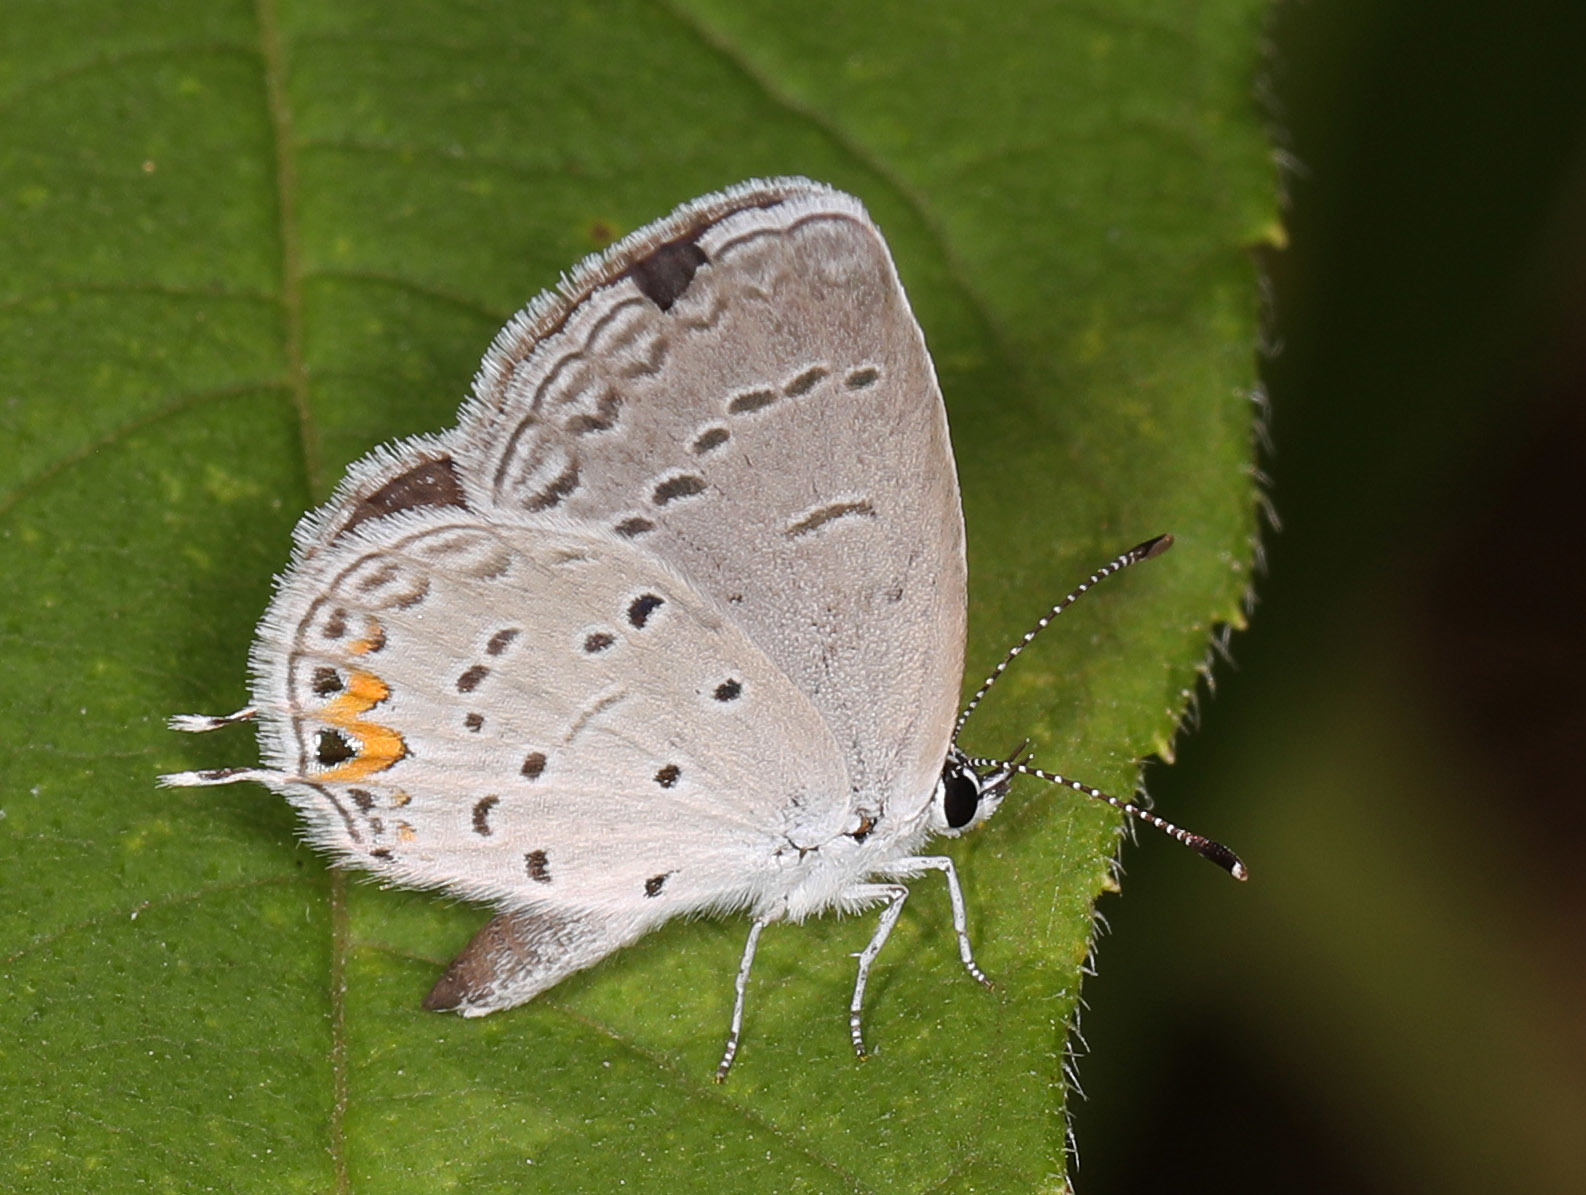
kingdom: Animalia
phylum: Arthropoda
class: Insecta
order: Lepidoptera
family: Lycaenidae
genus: Elkalyce
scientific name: Elkalyce comyntas
